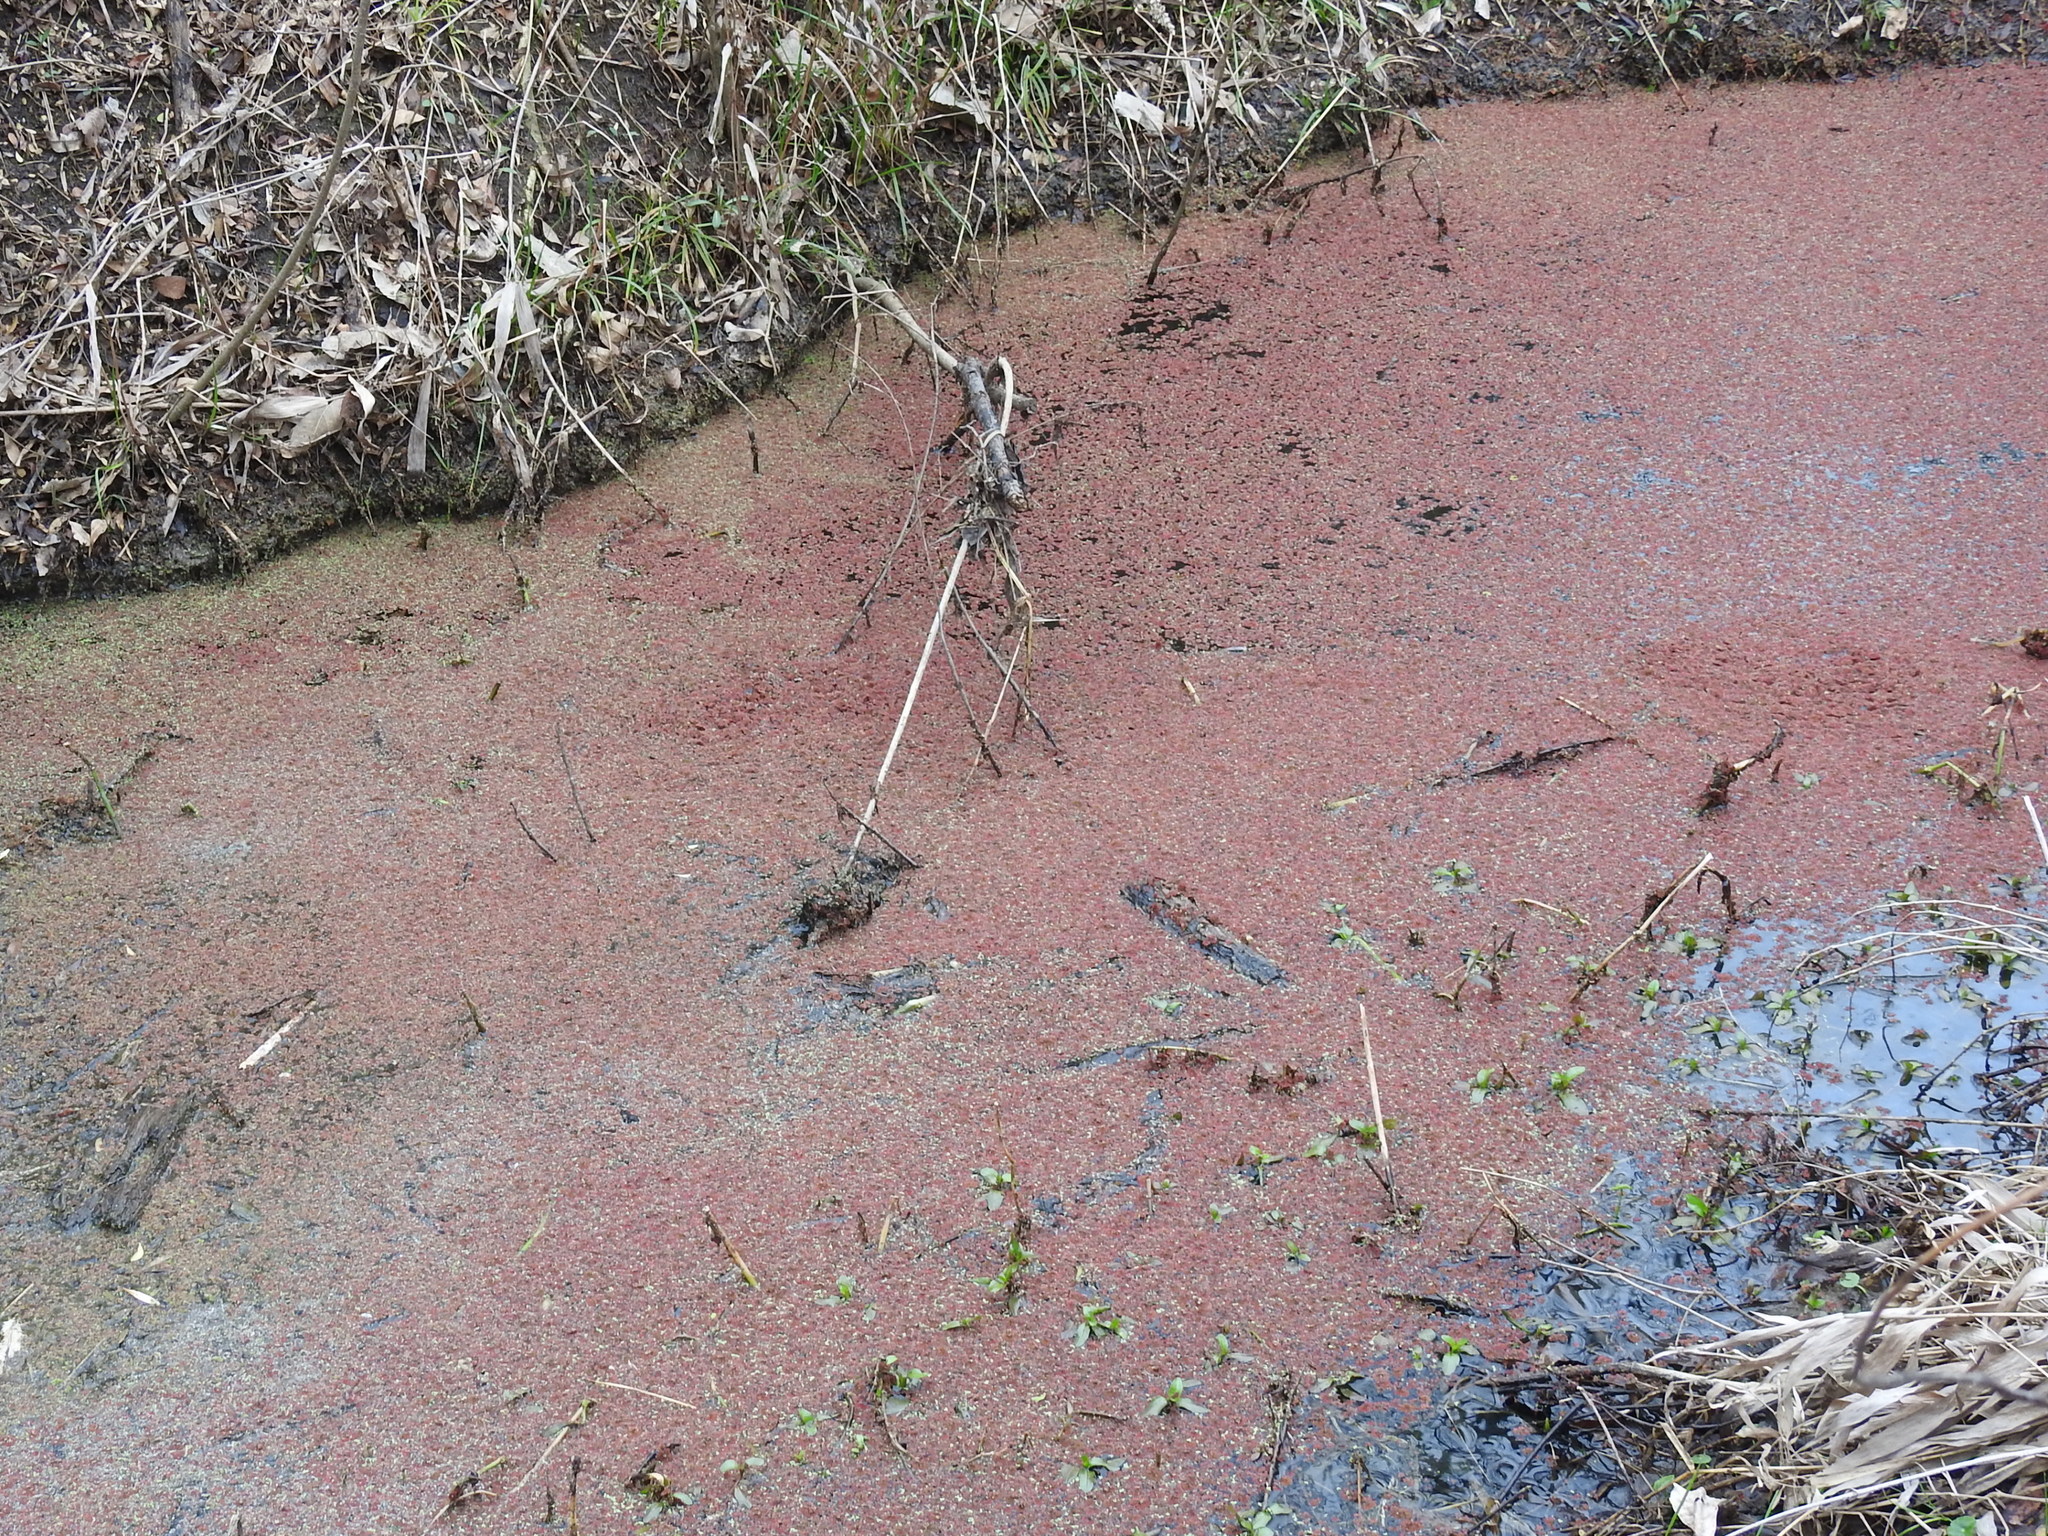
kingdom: Plantae
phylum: Tracheophyta
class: Polypodiopsida
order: Salviniales
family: Salviniaceae
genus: Azolla
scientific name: Azolla caroliniana
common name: Carolina mosquitofern
